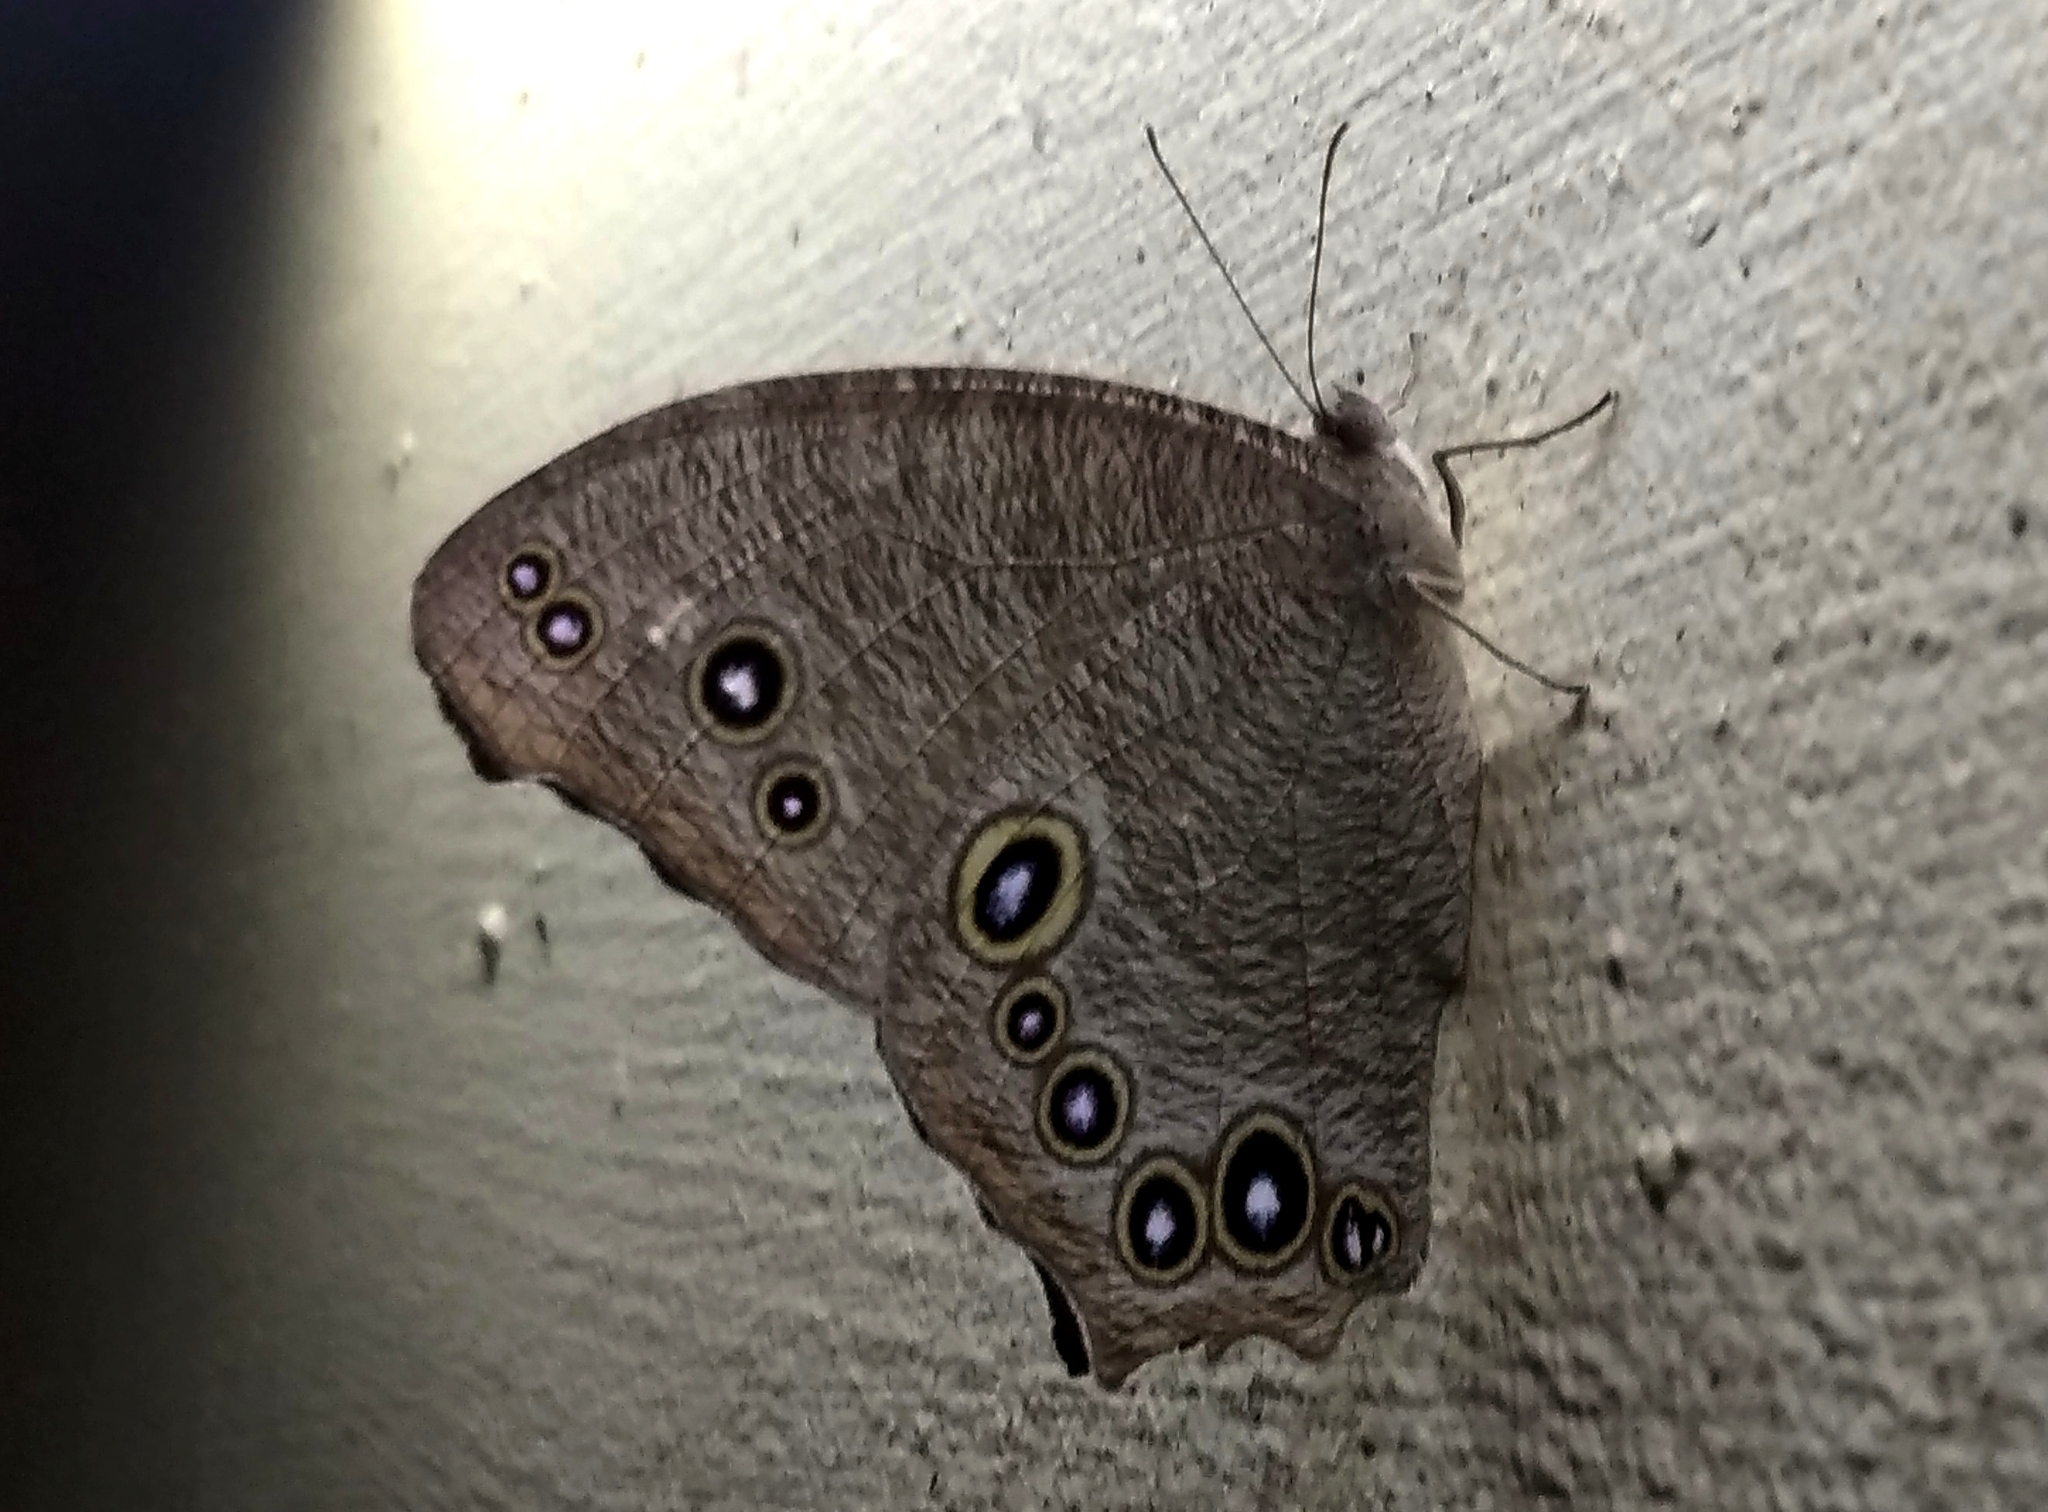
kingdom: Animalia
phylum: Arthropoda
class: Insecta
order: Lepidoptera
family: Nymphalidae
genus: Melanitis
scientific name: Melanitis leda
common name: Twilight brown
